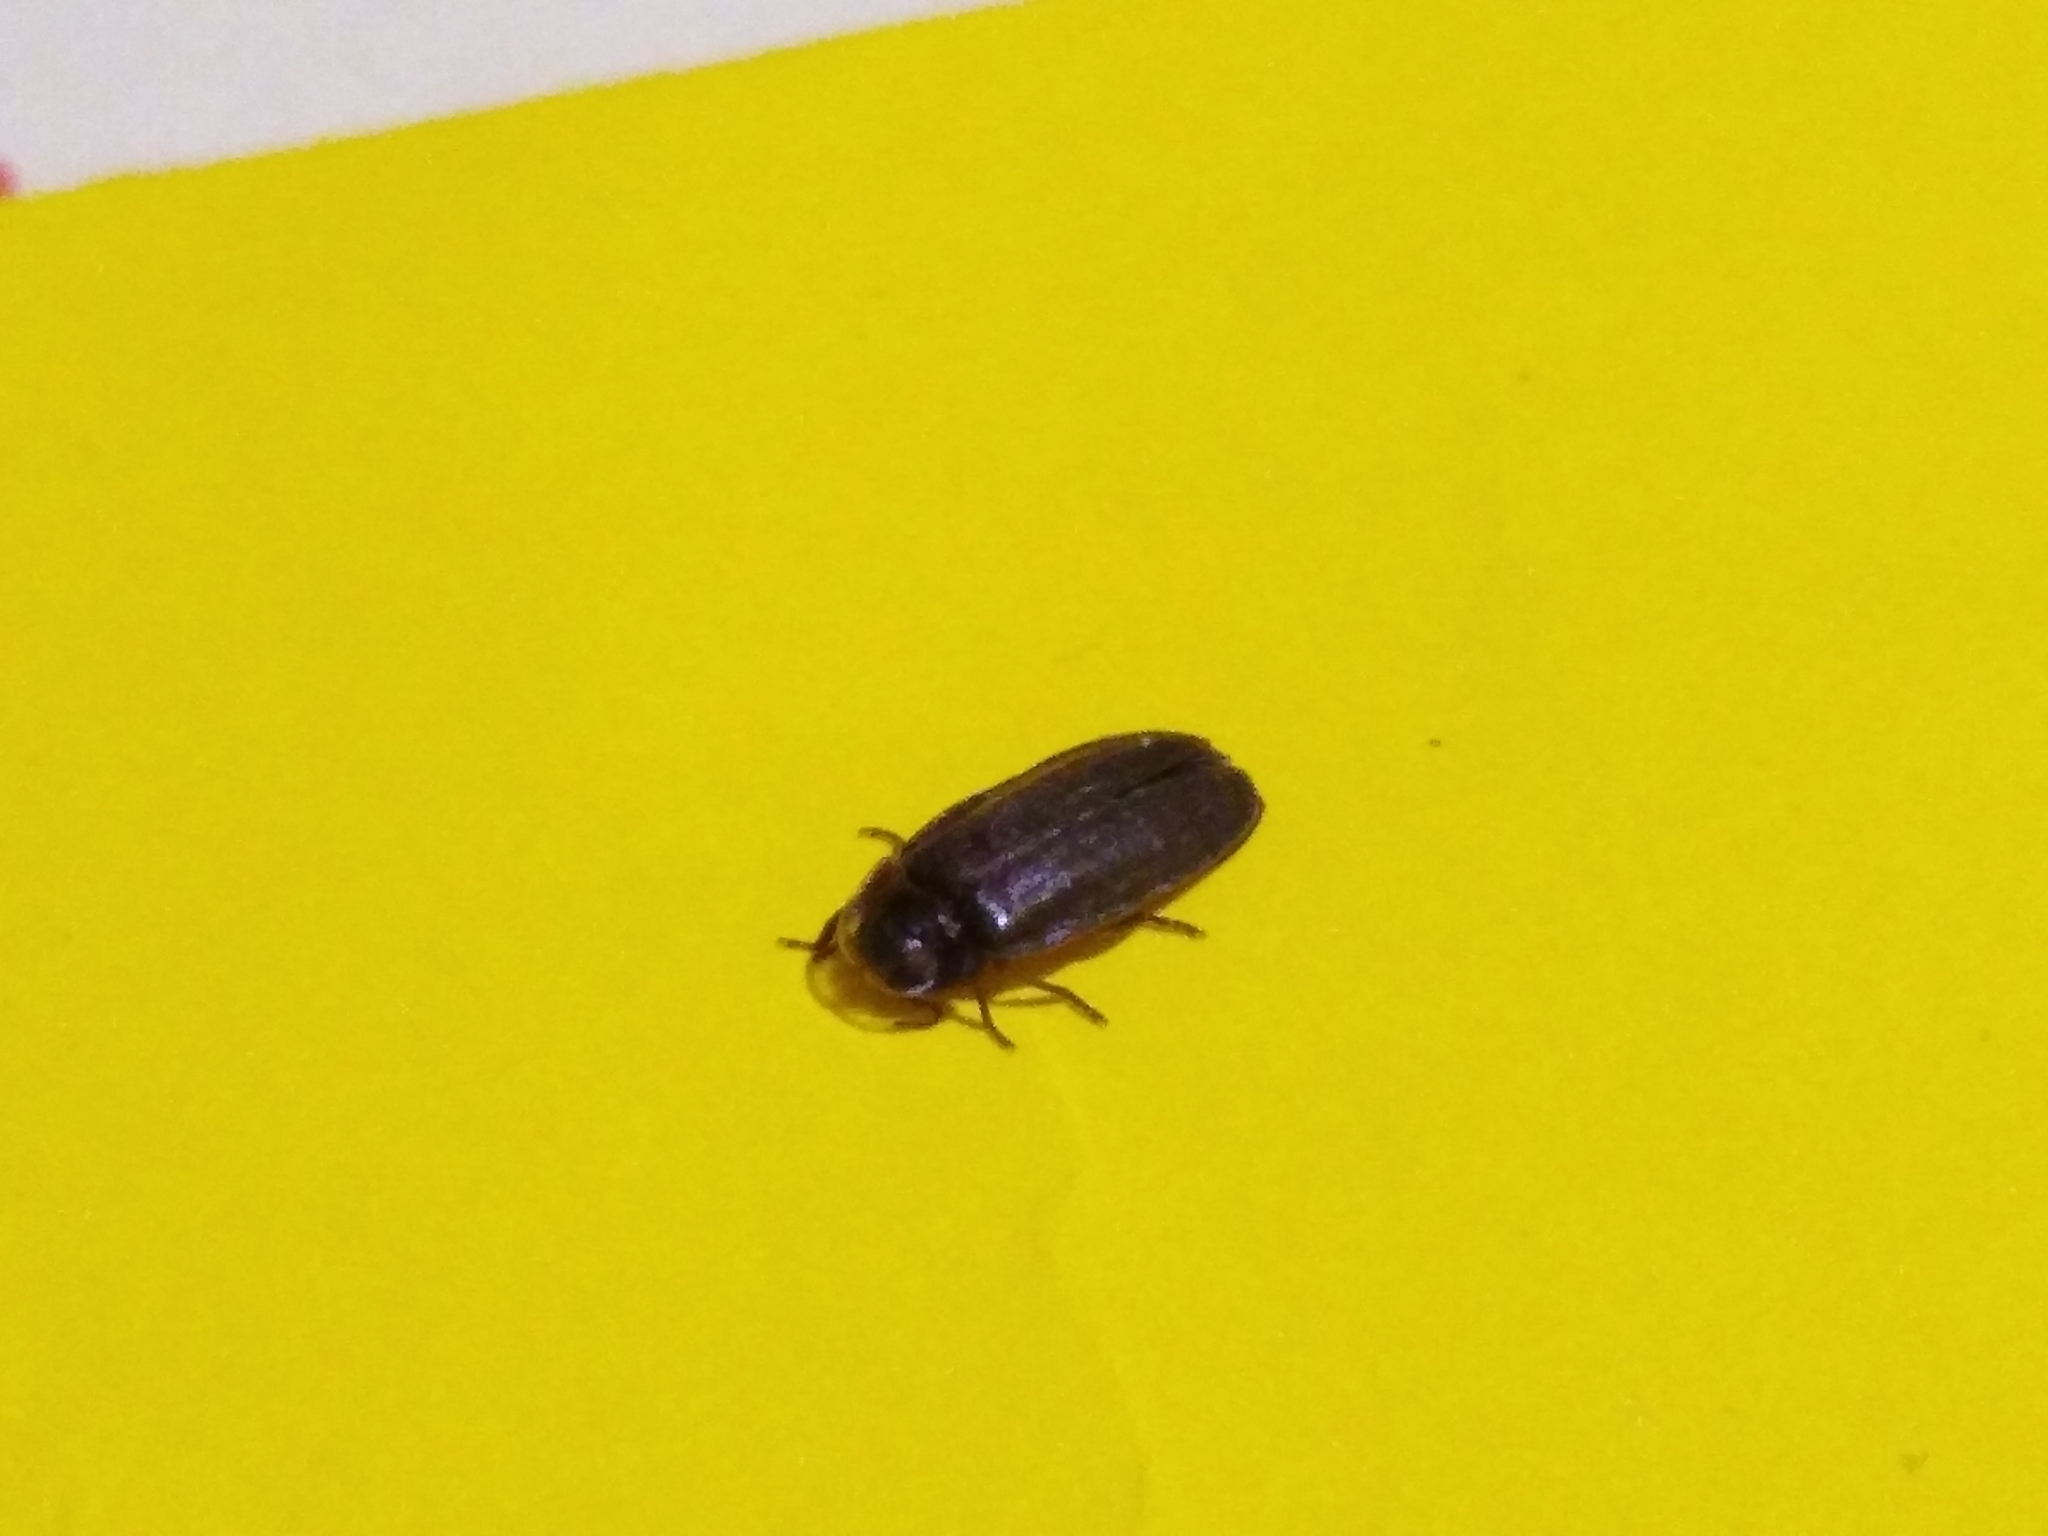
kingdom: Animalia
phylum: Arthropoda
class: Insecta
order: Coleoptera
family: Lampyridae
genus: Lamprohiza
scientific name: Lamprohiza splendidula
